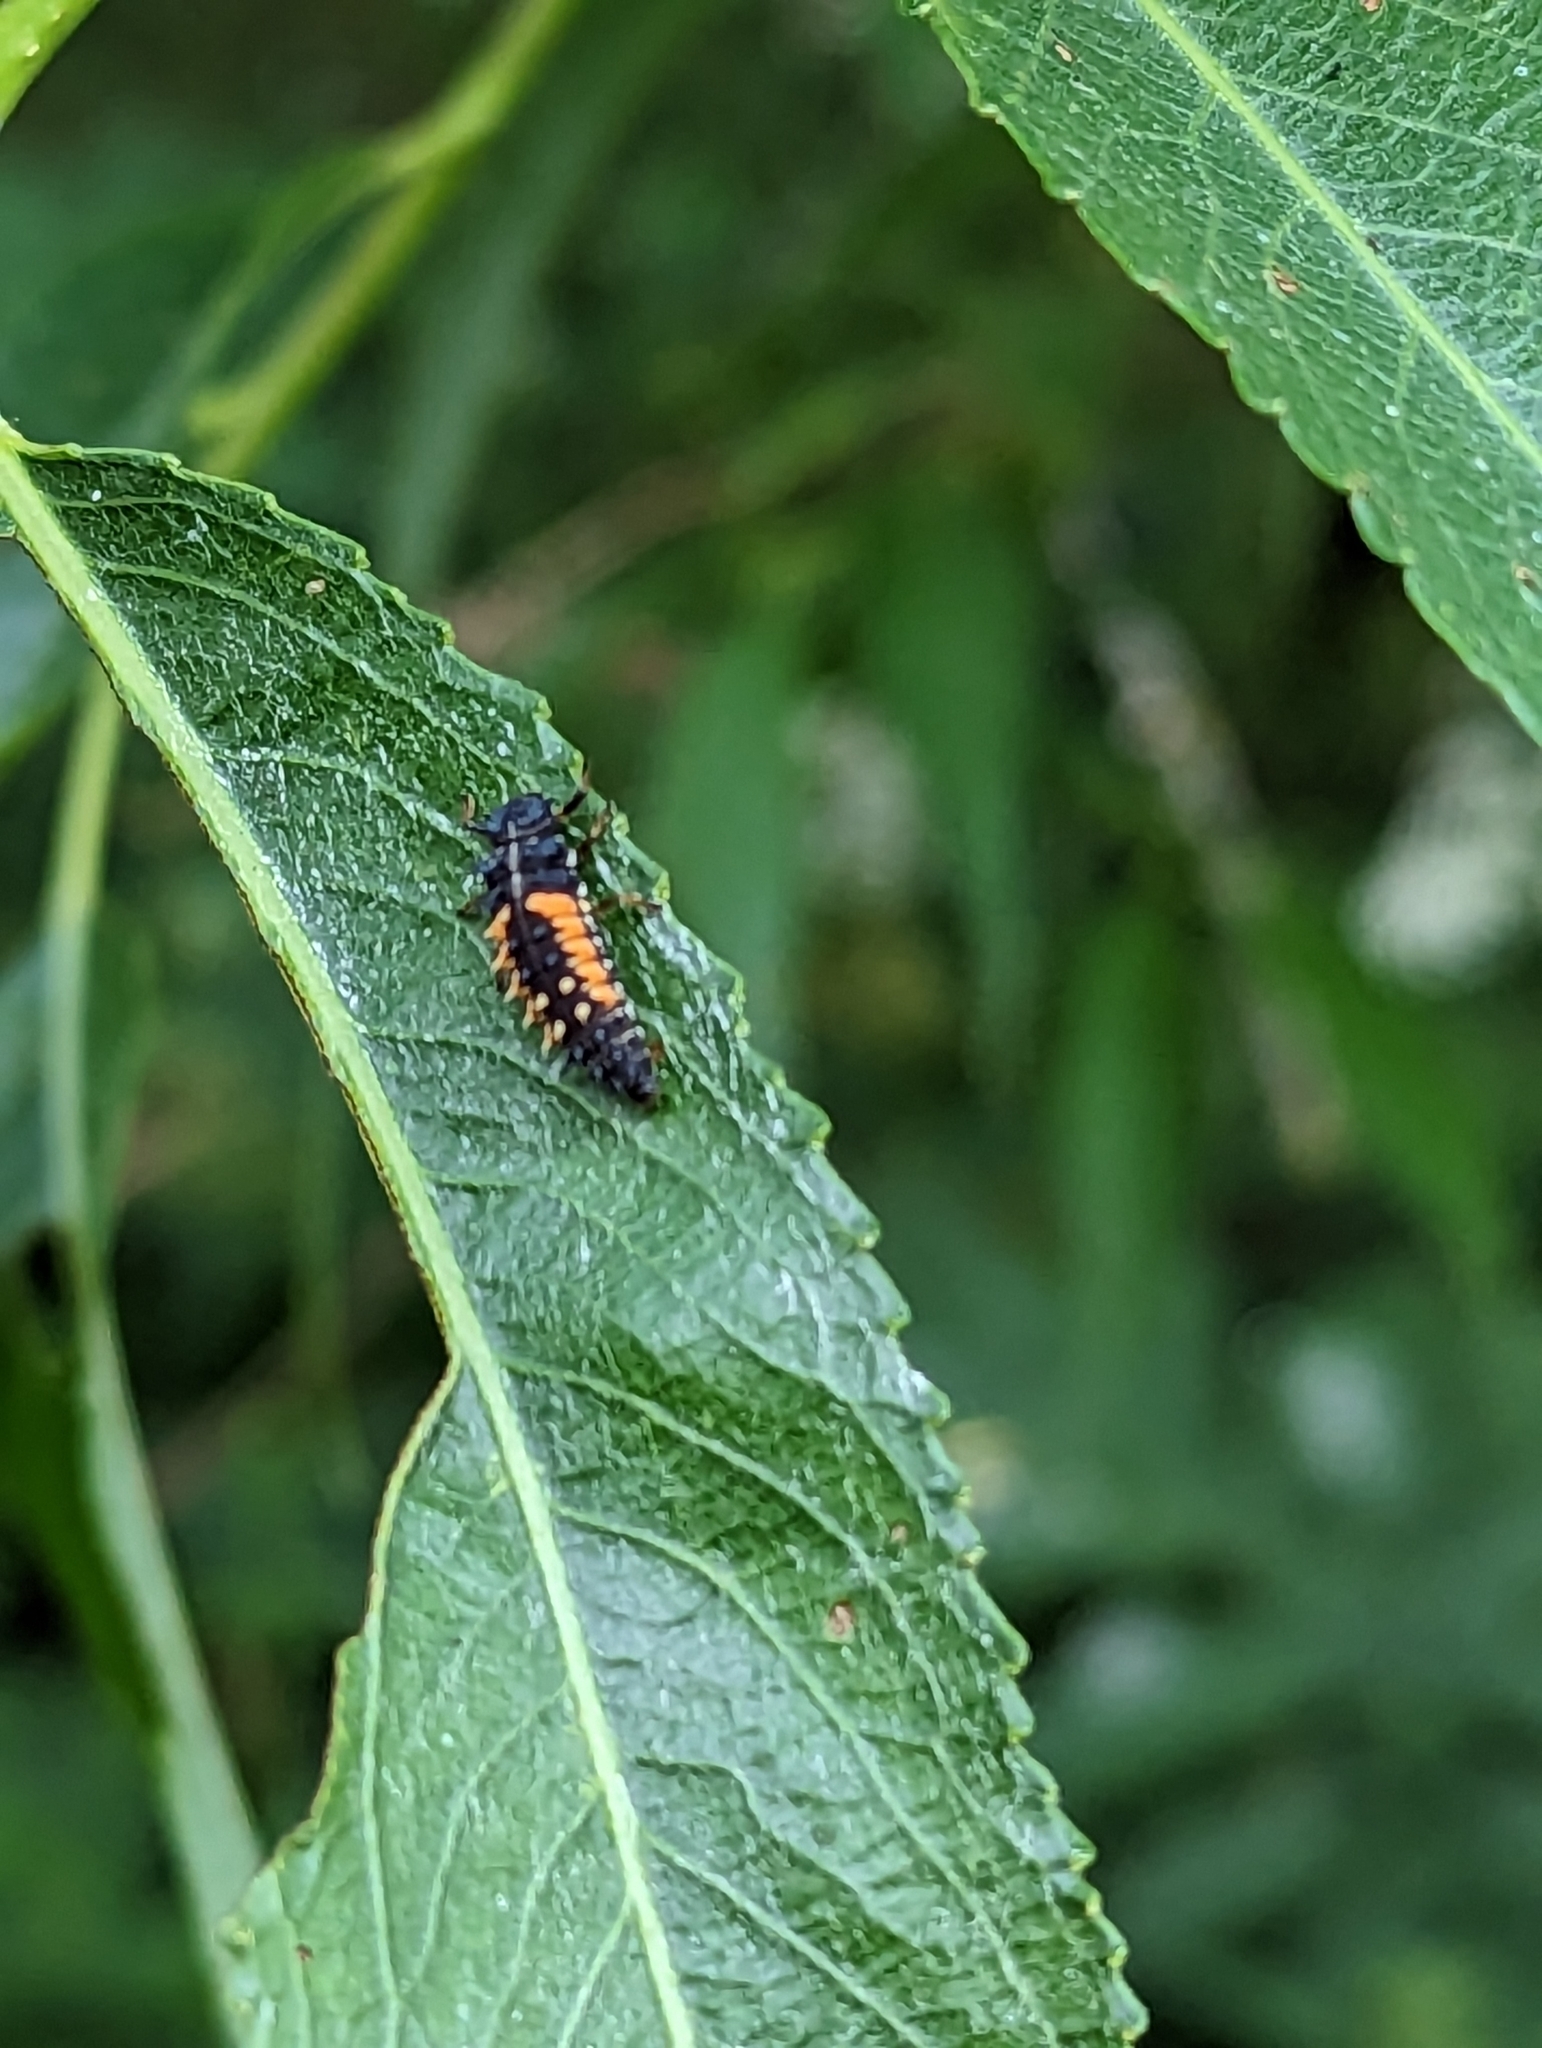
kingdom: Animalia
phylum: Arthropoda
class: Insecta
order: Coleoptera
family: Coccinellidae
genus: Harmonia
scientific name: Harmonia axyridis
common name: Harlequin ladybird
